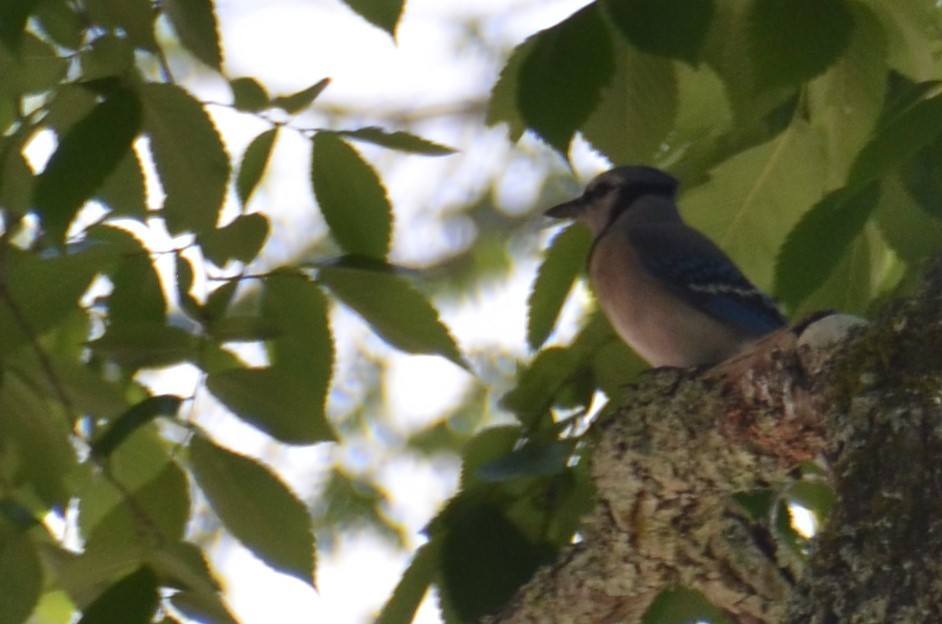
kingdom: Animalia
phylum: Chordata
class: Aves
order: Passeriformes
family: Corvidae
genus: Cyanocitta
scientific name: Cyanocitta cristata
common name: Blue jay
